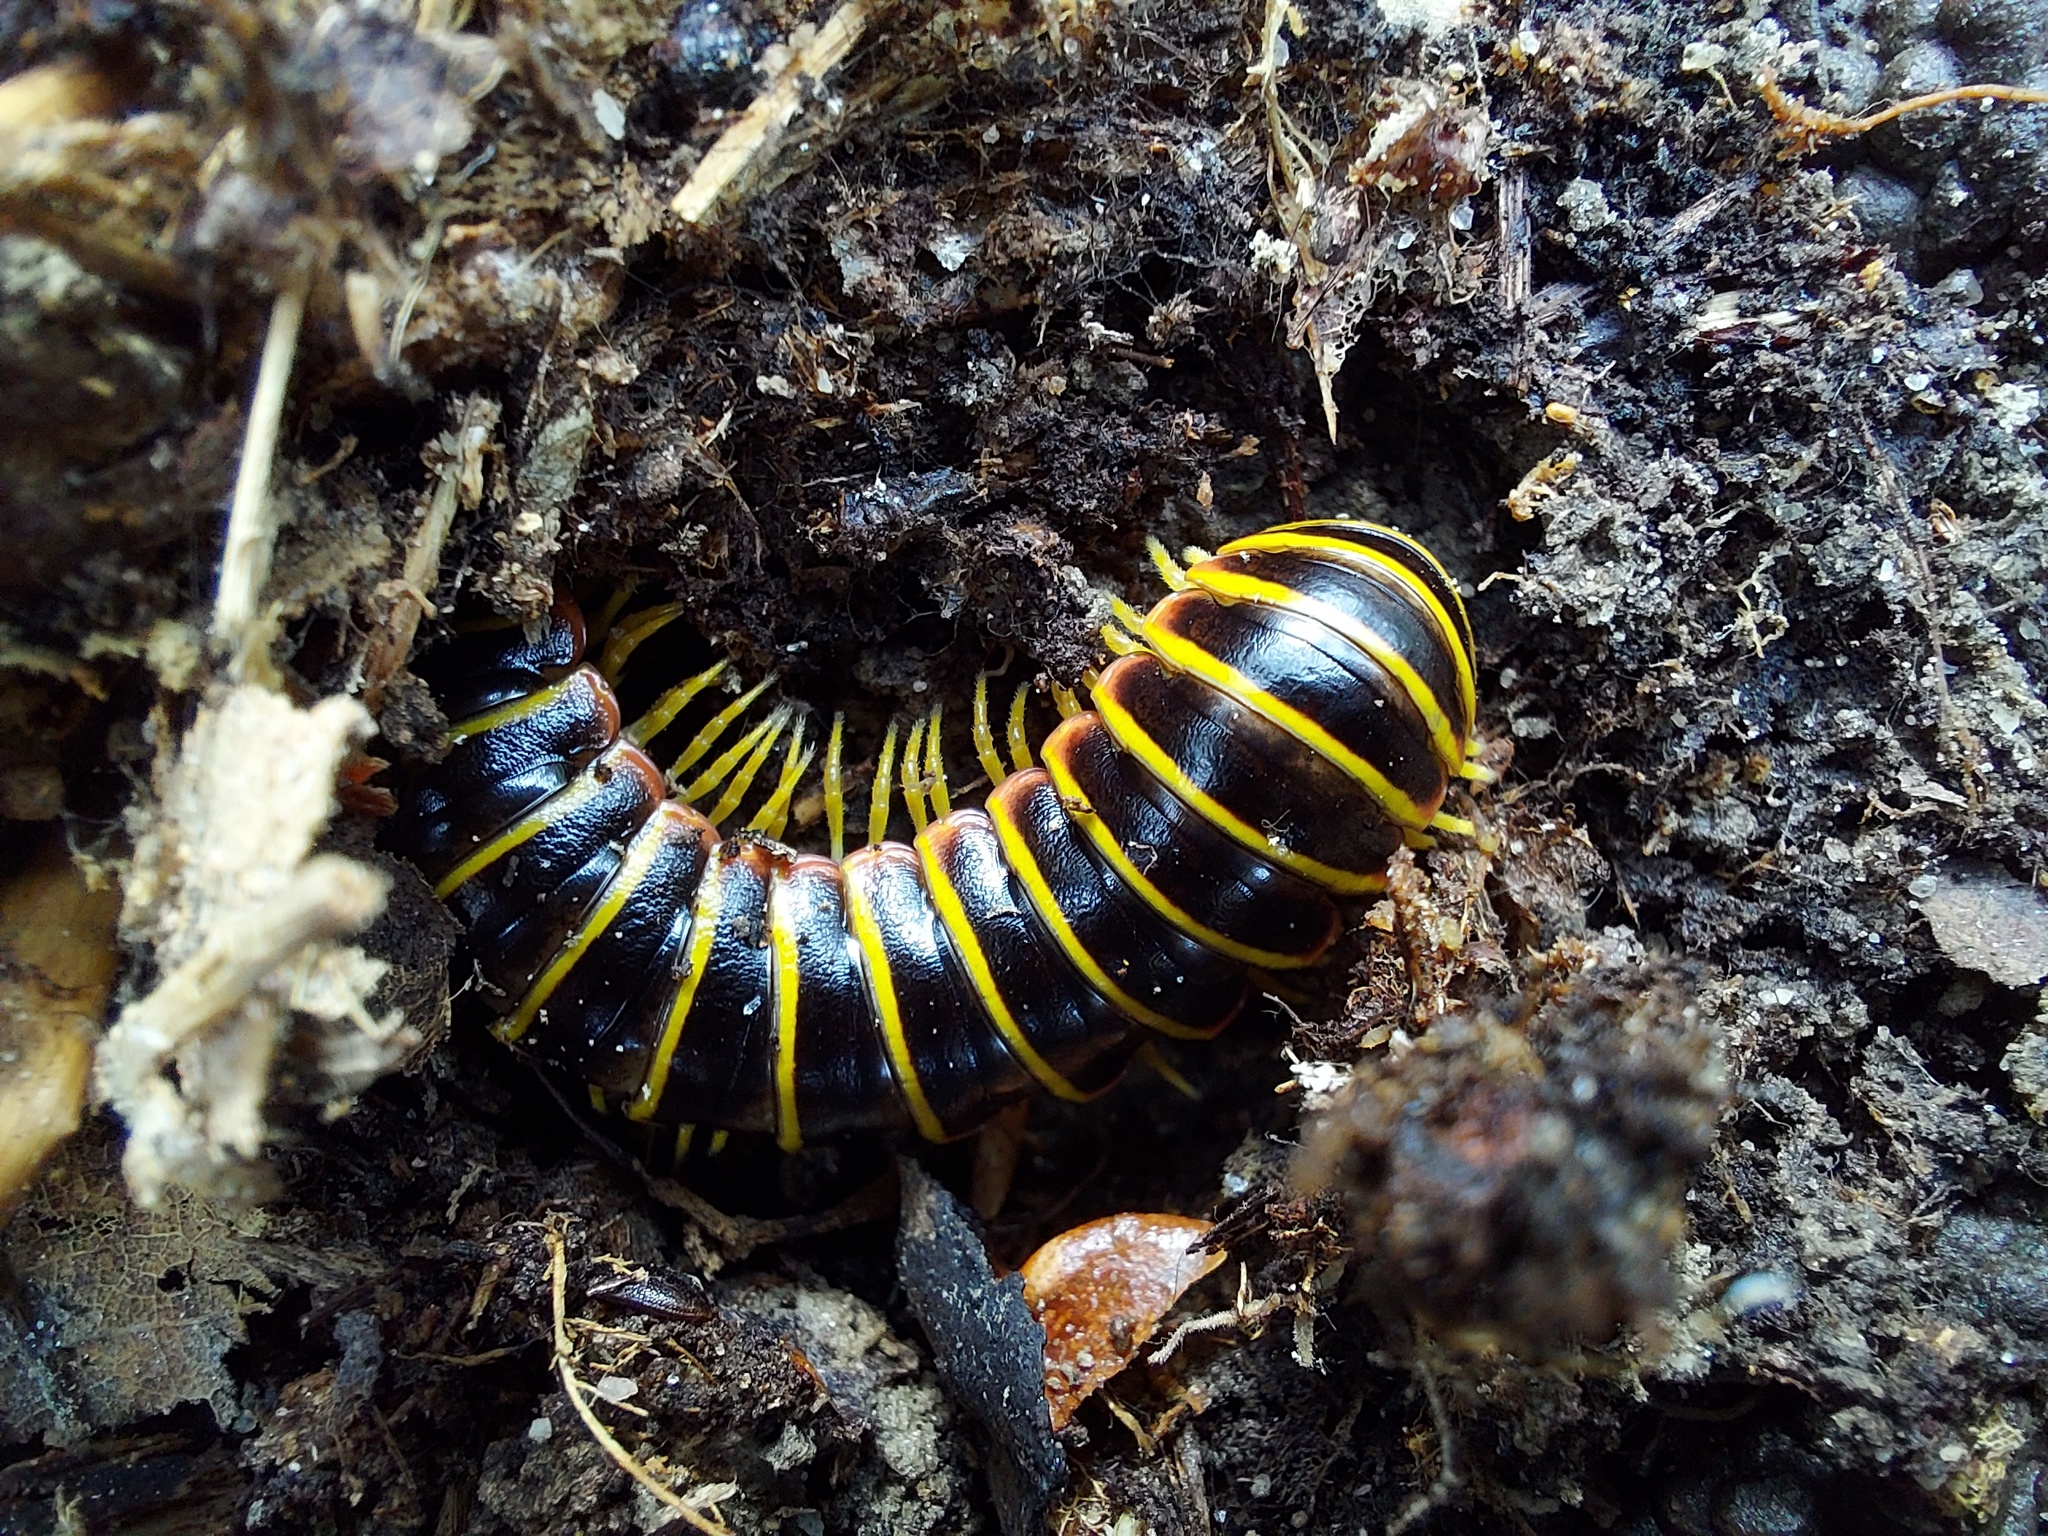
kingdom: Animalia
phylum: Arthropoda
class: Diplopoda
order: Polydesmida
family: Xystodesmidae
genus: Apheloria
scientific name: Apheloria virginiensis
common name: Black-and-gold flat millipede
